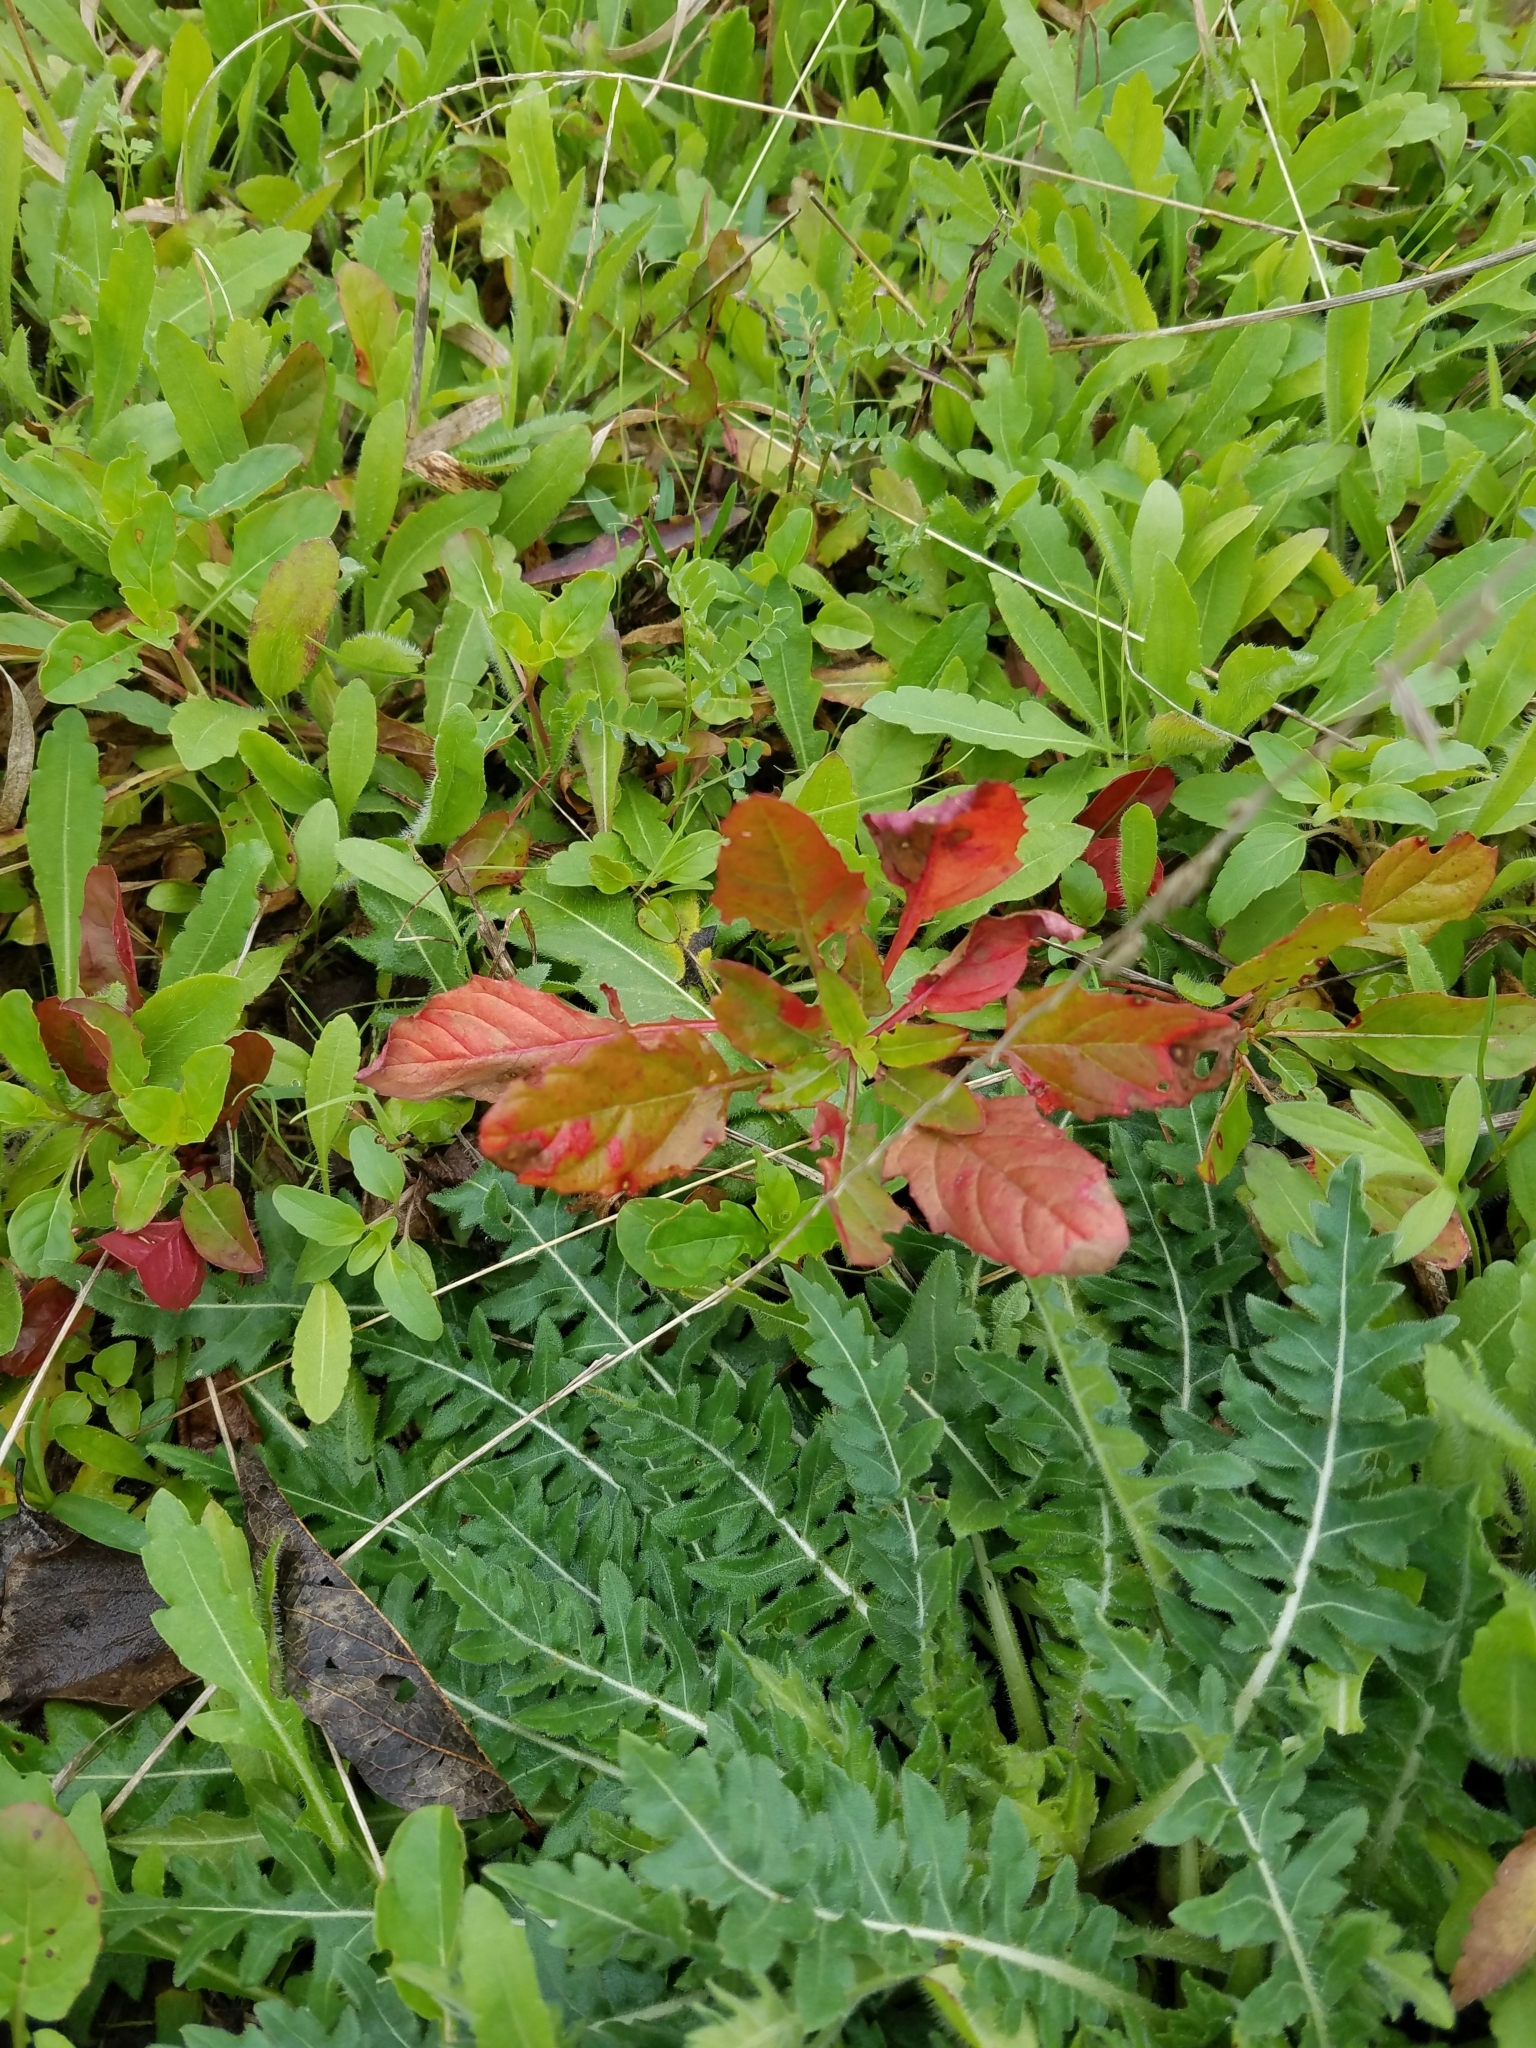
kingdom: Plantae
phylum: Tracheophyta
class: Magnoliopsida
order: Myrtales
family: Onagraceae
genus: Oenothera
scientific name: Oenothera speciosa
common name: White evening-primrose
